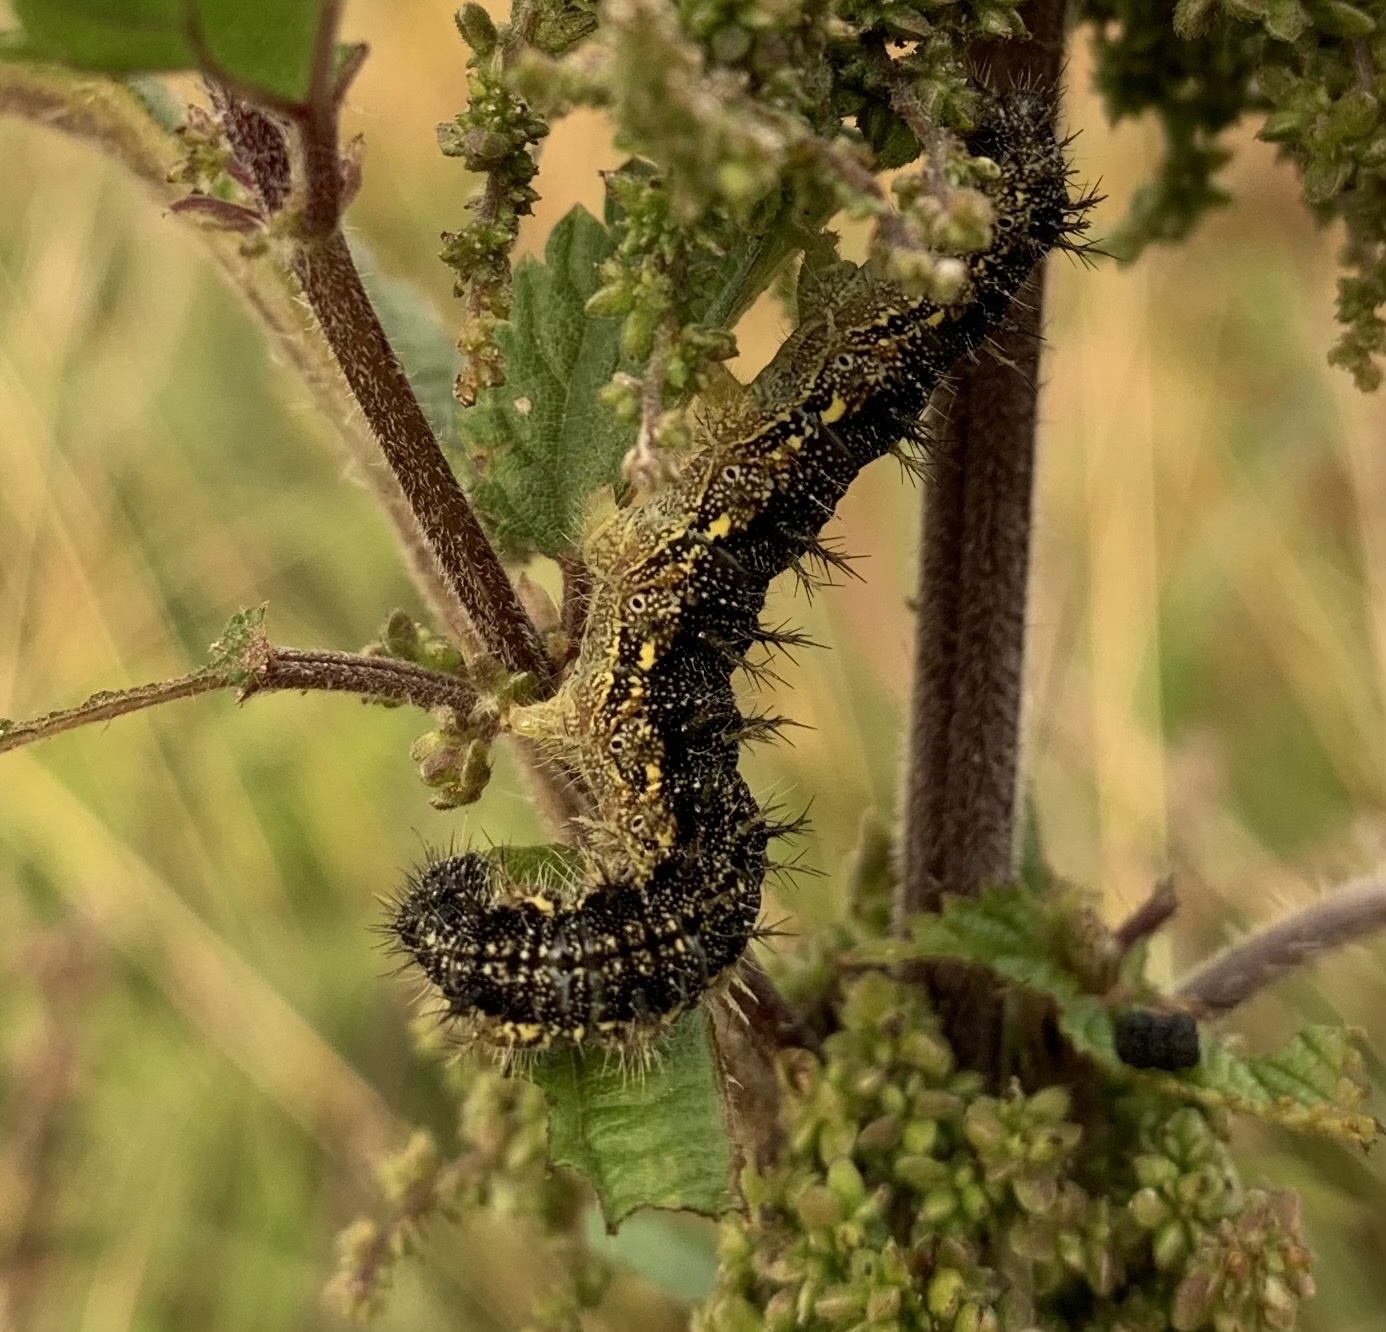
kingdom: Animalia
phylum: Arthropoda
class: Insecta
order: Lepidoptera
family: Nymphalidae
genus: Aglais
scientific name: Aglais urticae
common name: Small tortoiseshell
